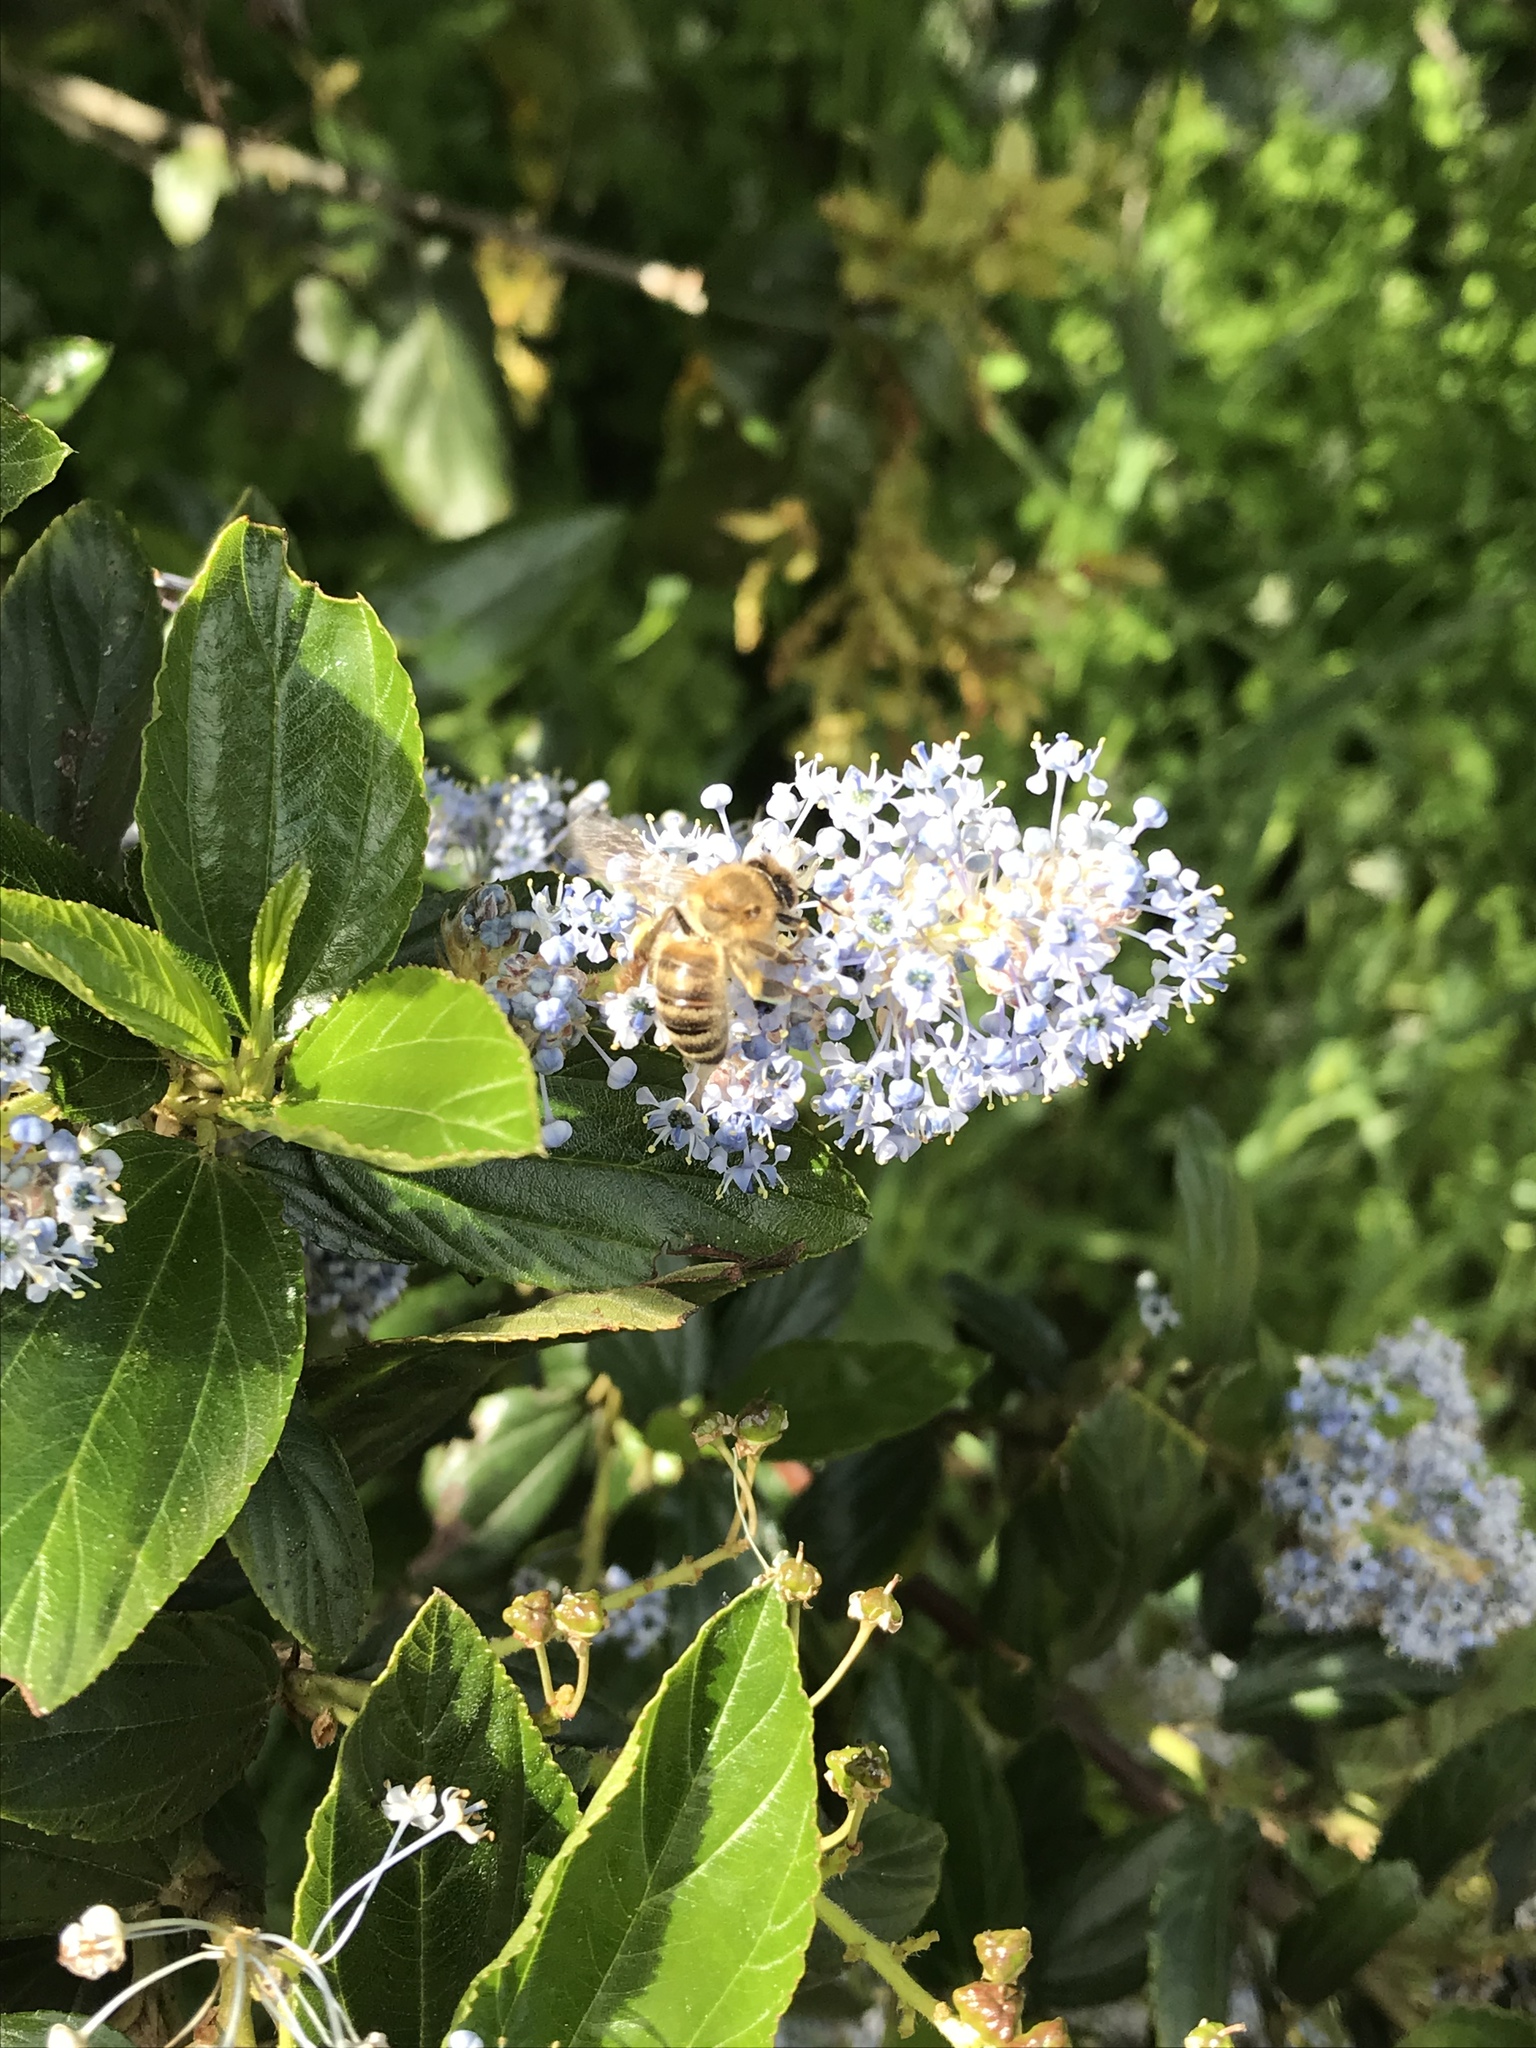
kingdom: Animalia
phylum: Arthropoda
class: Insecta
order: Hymenoptera
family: Apidae
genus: Apis
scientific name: Apis mellifera
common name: Honey bee
